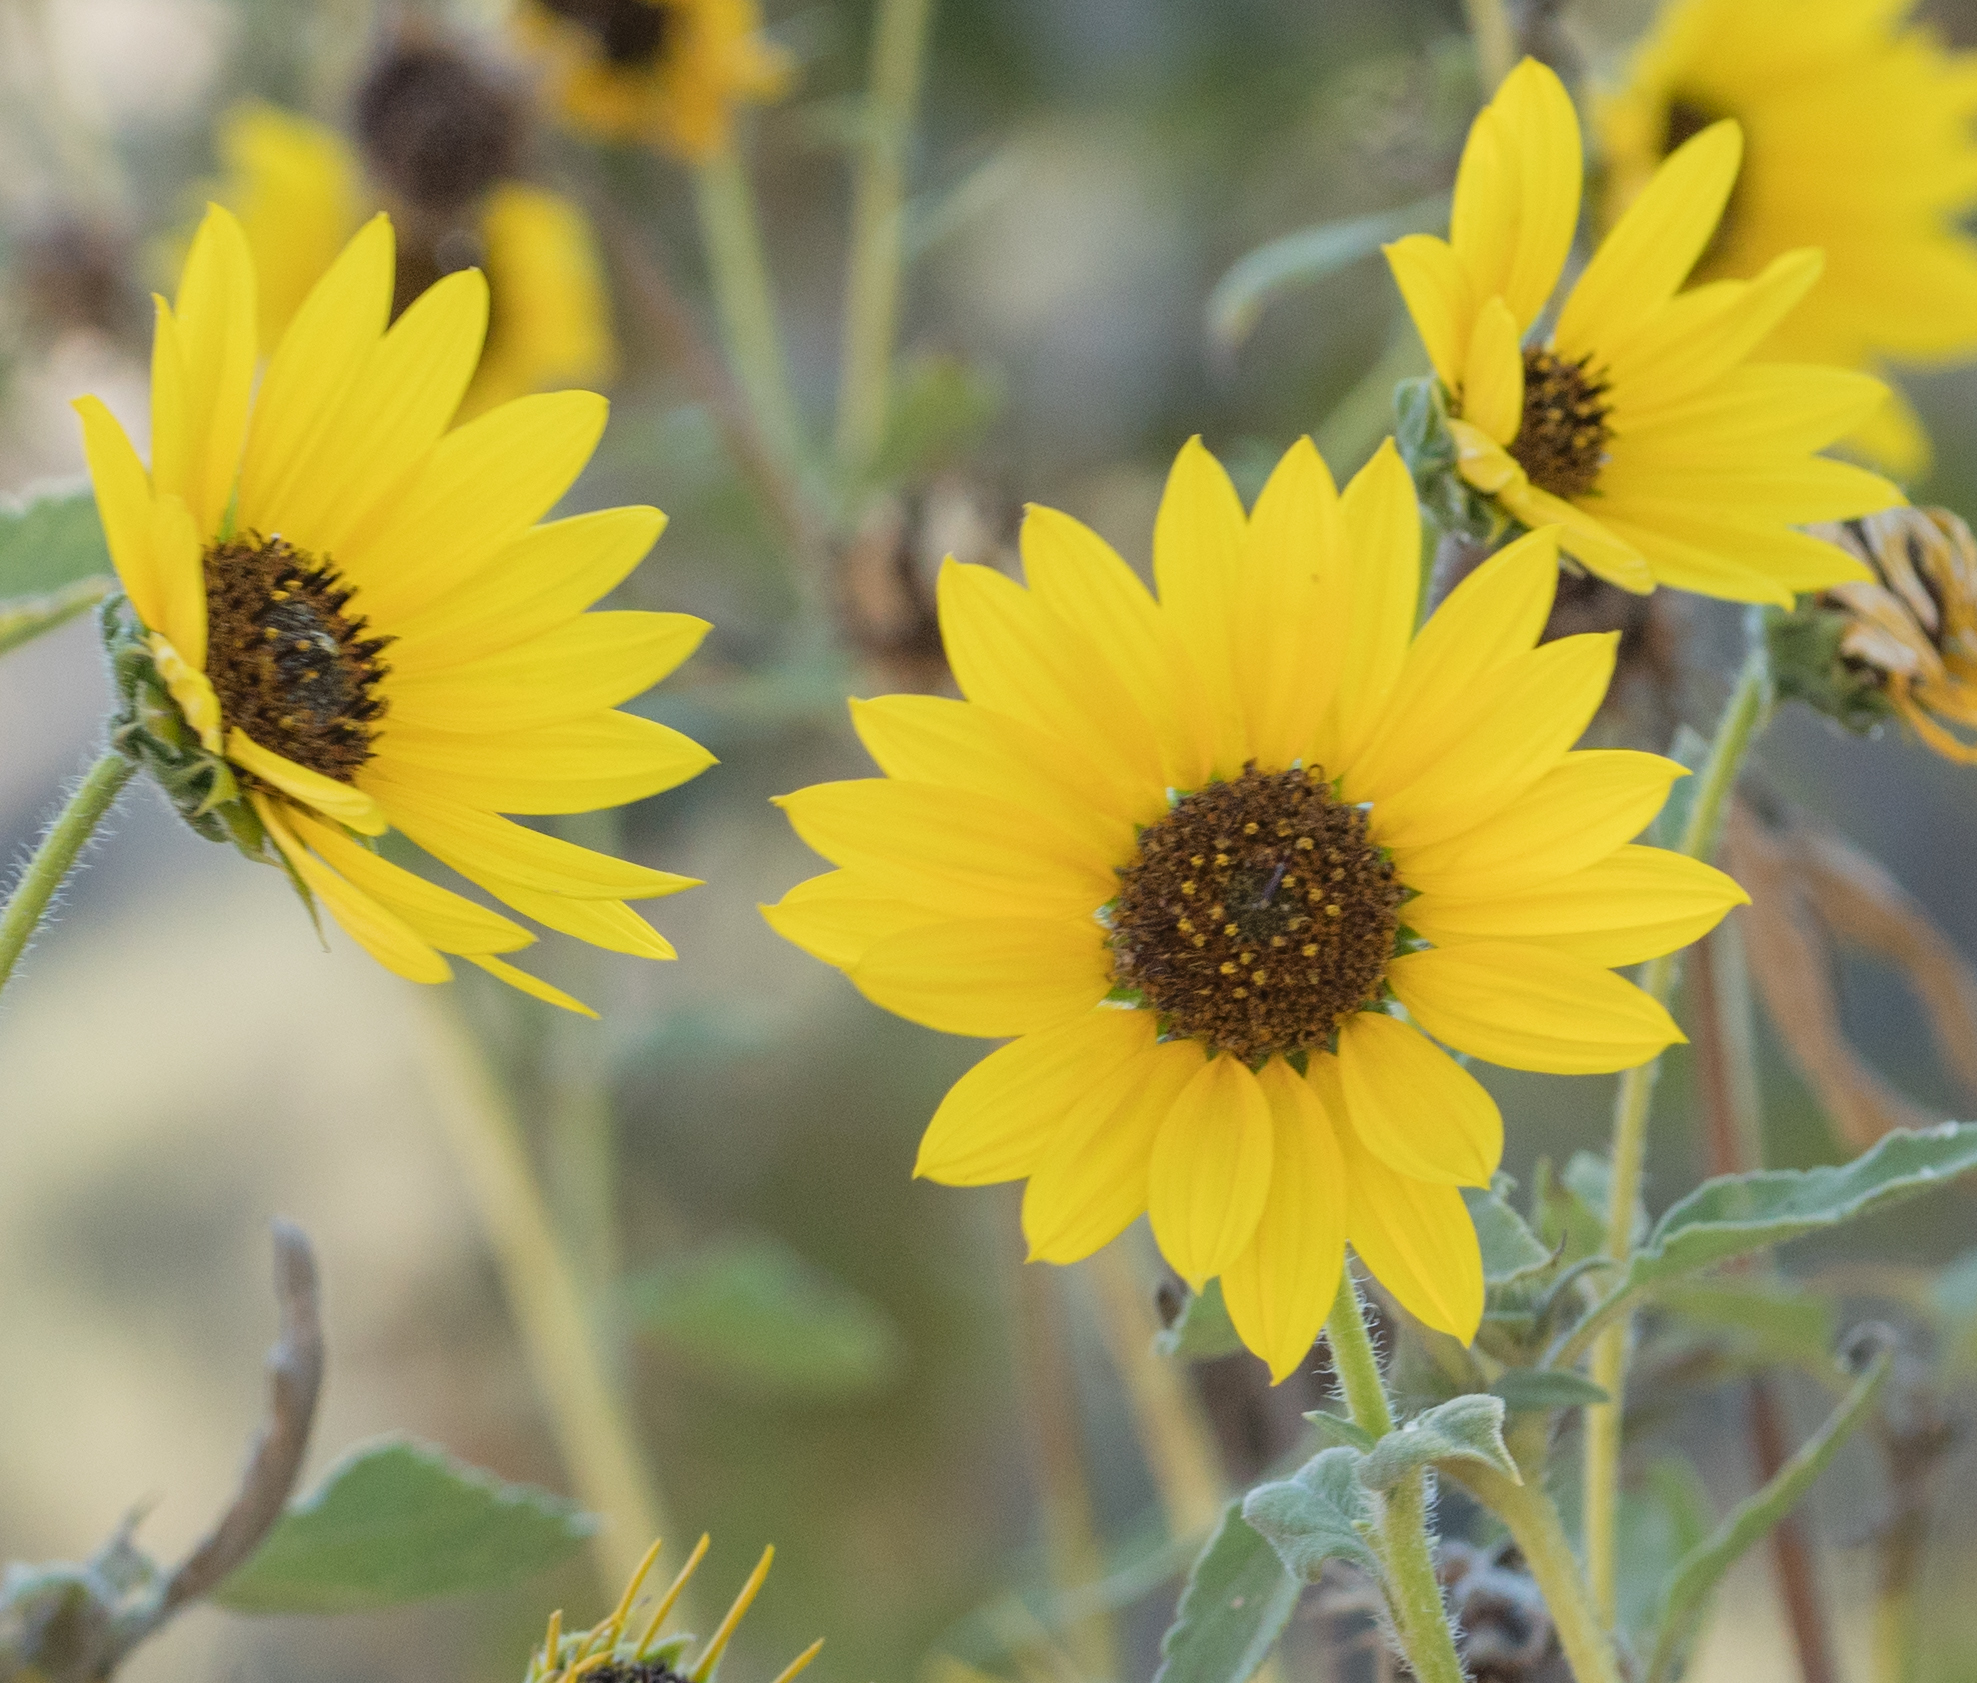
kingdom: Plantae
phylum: Tracheophyta
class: Magnoliopsida
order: Asterales
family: Asteraceae
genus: Helianthus
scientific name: Helianthus annuus
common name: Sunflower
